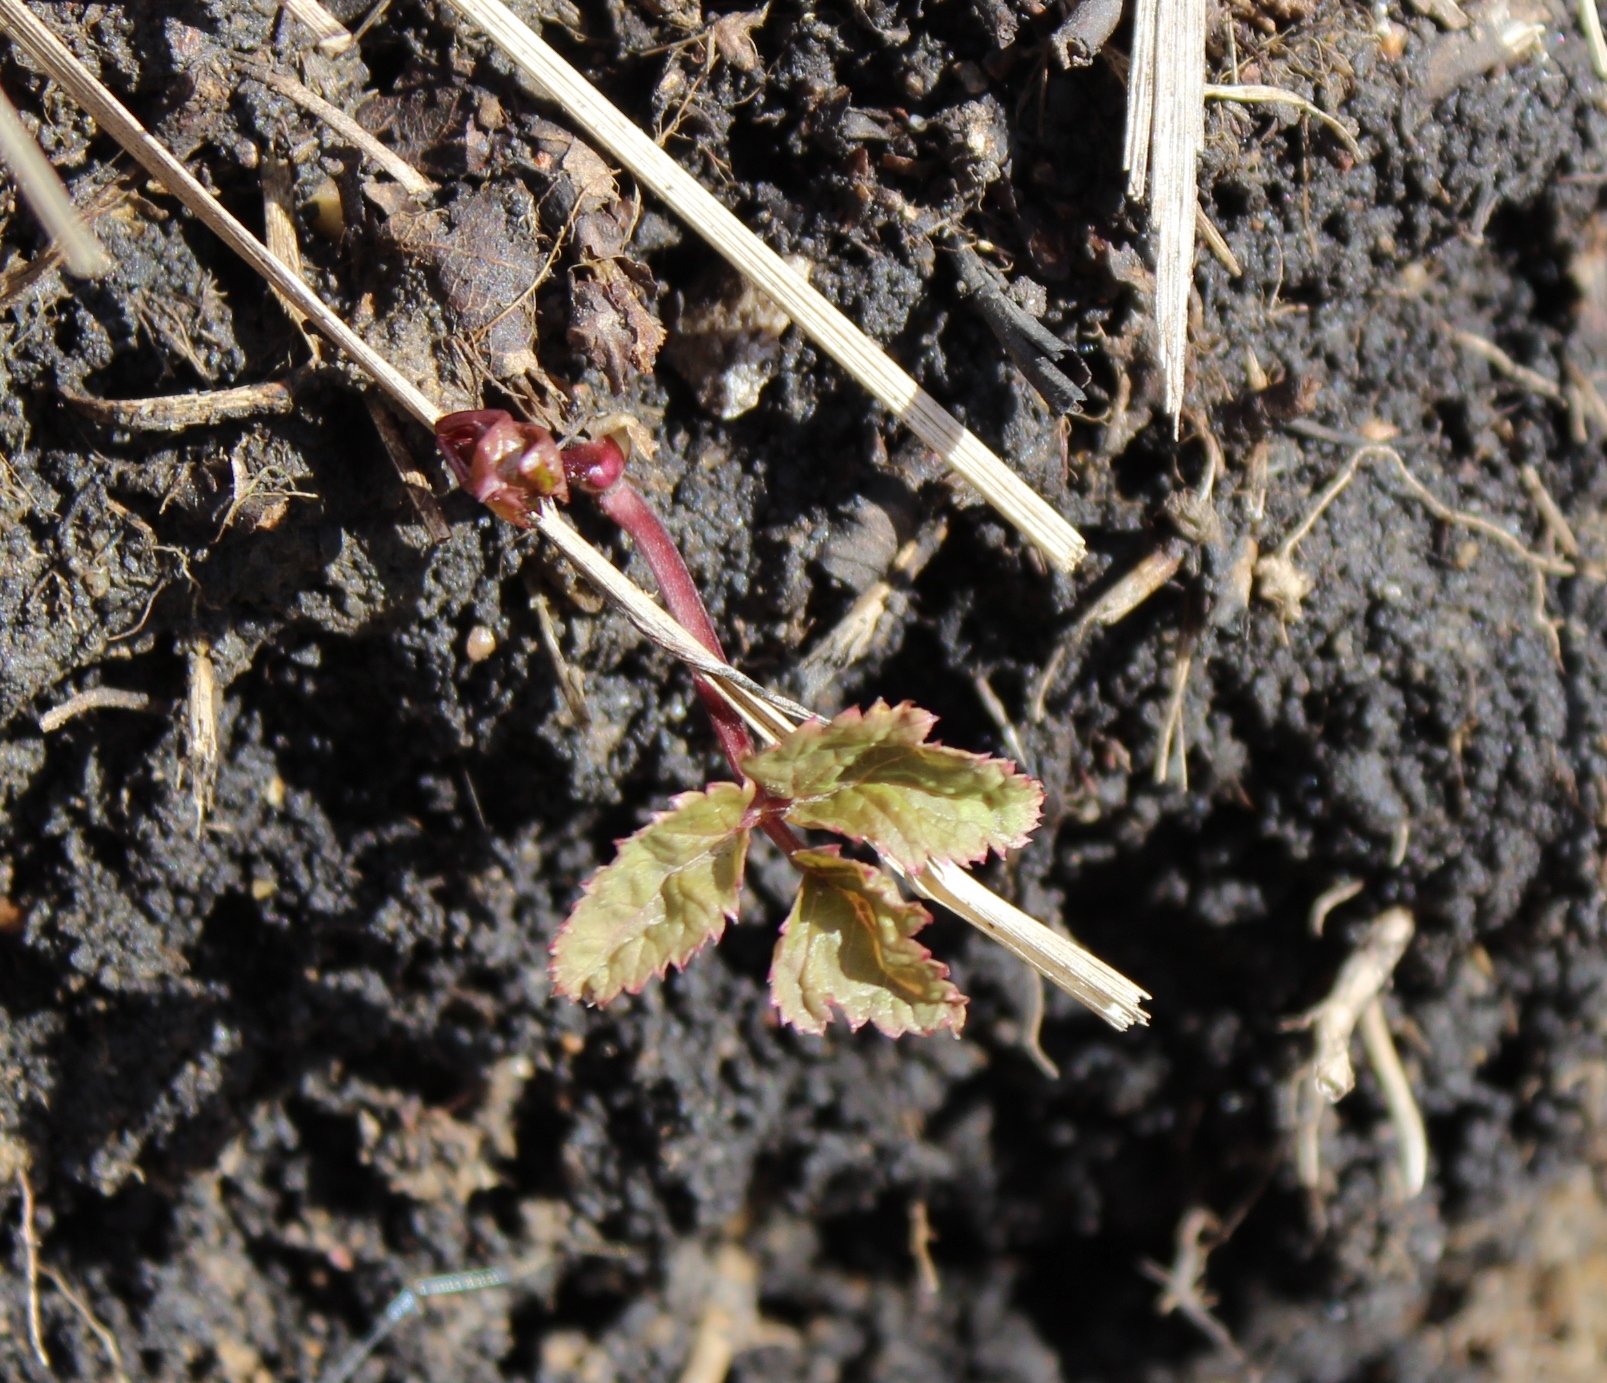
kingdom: Plantae
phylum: Tracheophyta
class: Magnoliopsida
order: Apiales
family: Apiaceae
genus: Aegopodium
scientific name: Aegopodium podagraria
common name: Ground-elder
